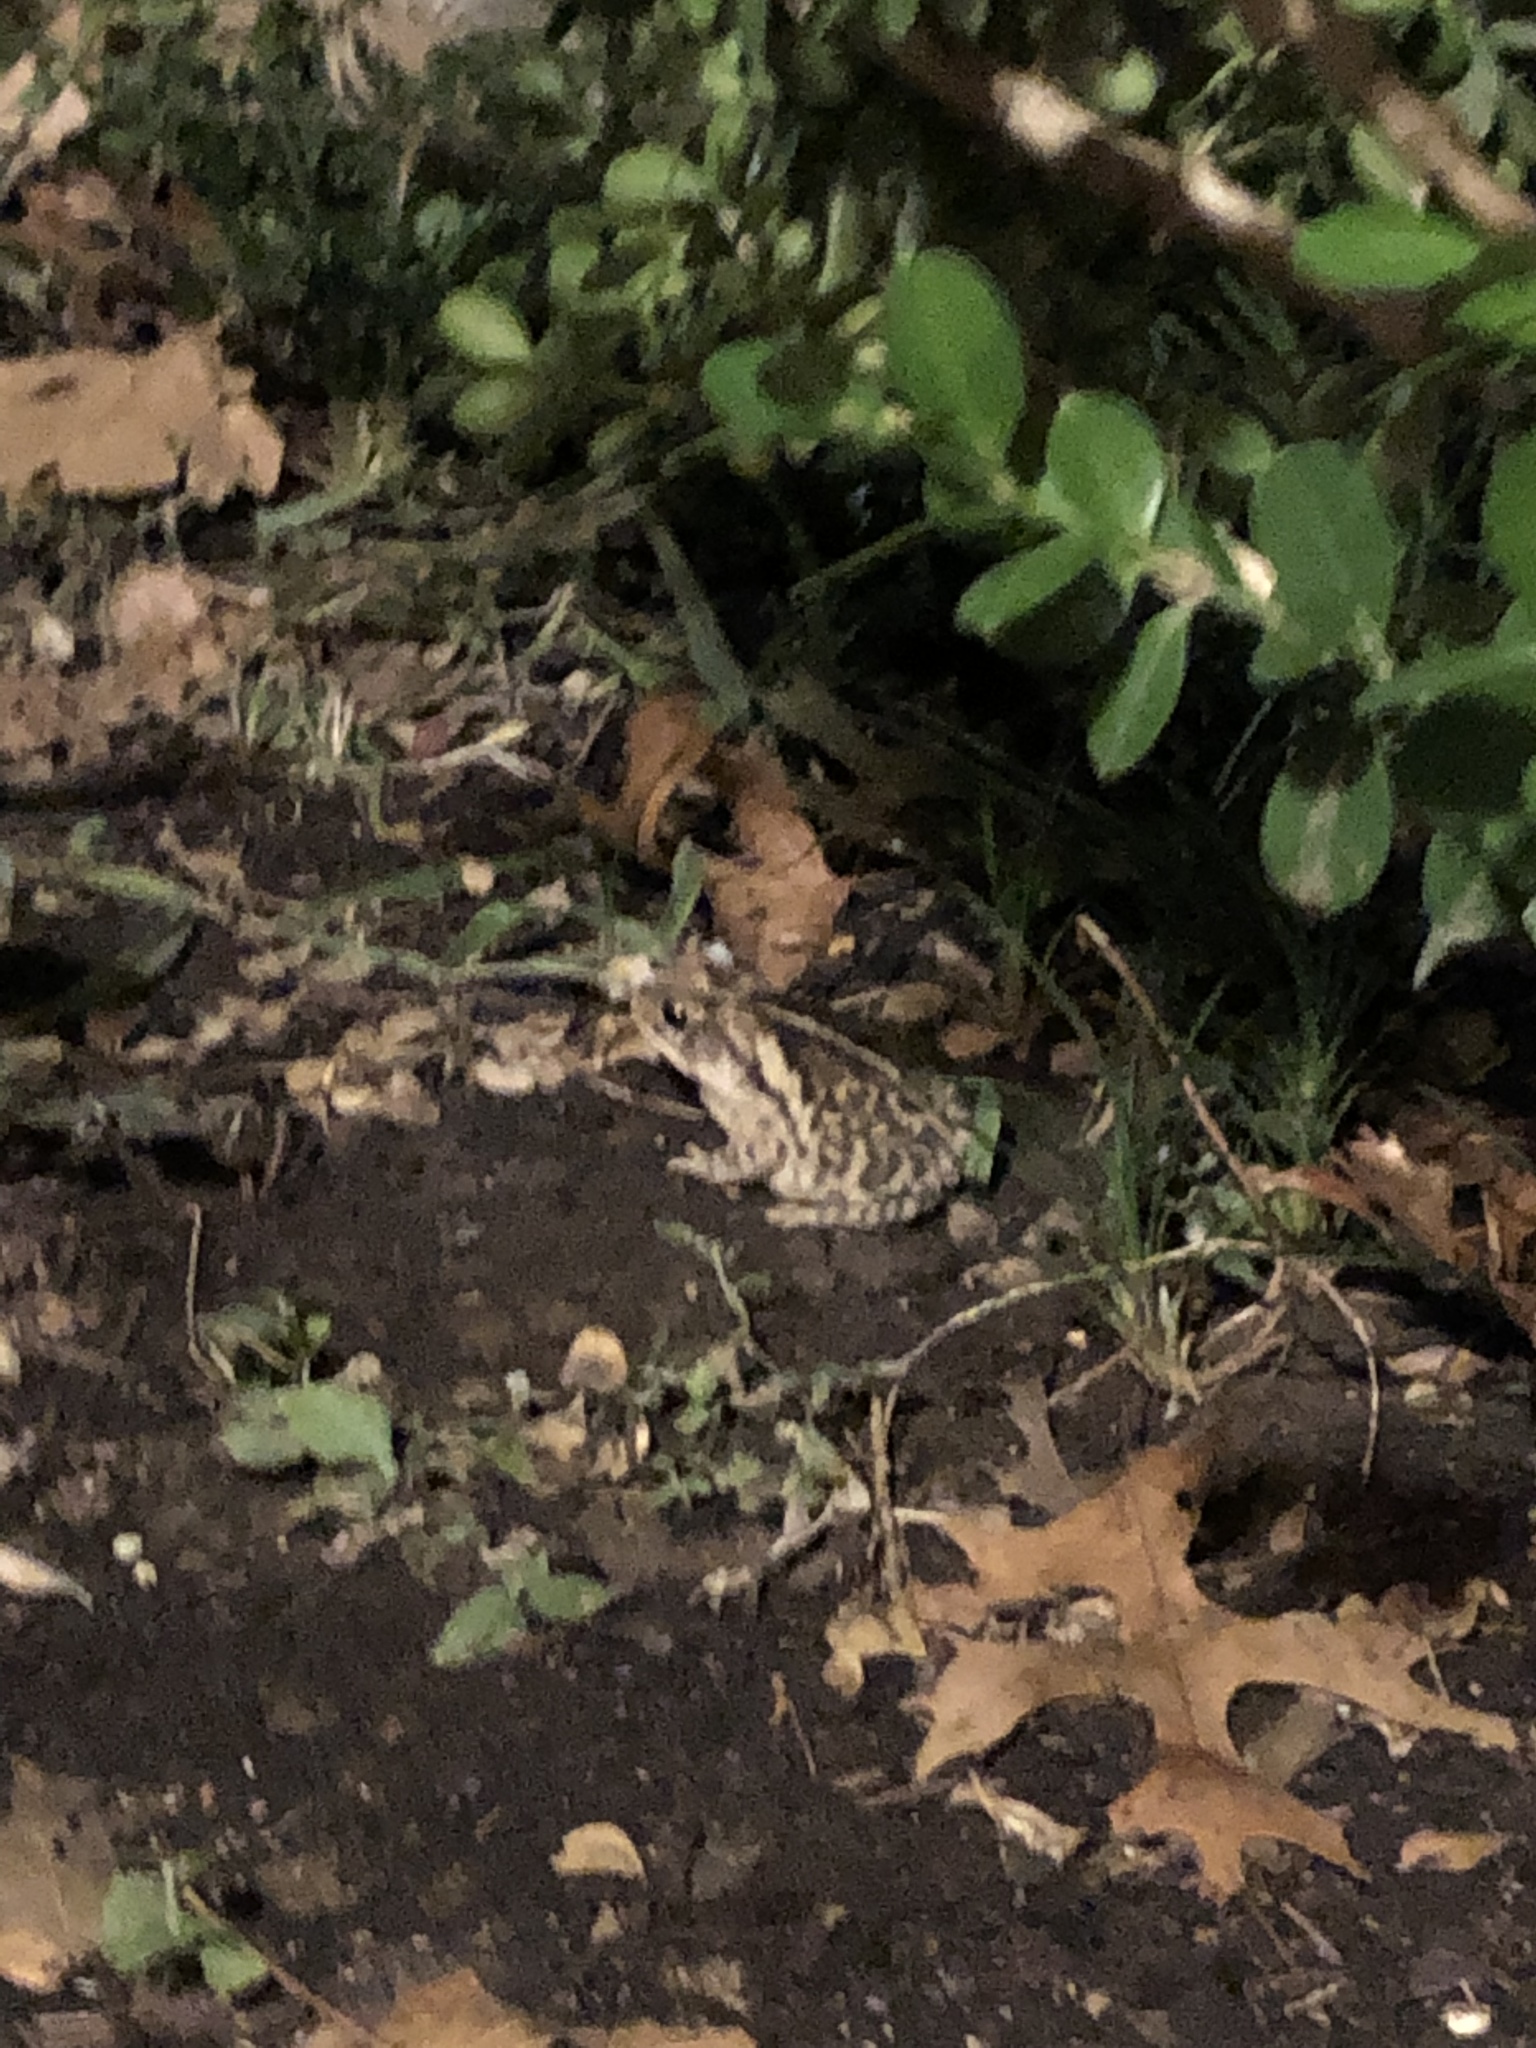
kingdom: Animalia
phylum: Chordata
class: Amphibia
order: Anura
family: Bufonidae
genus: Incilius
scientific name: Incilius nebulifer
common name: Gulf coast toad
